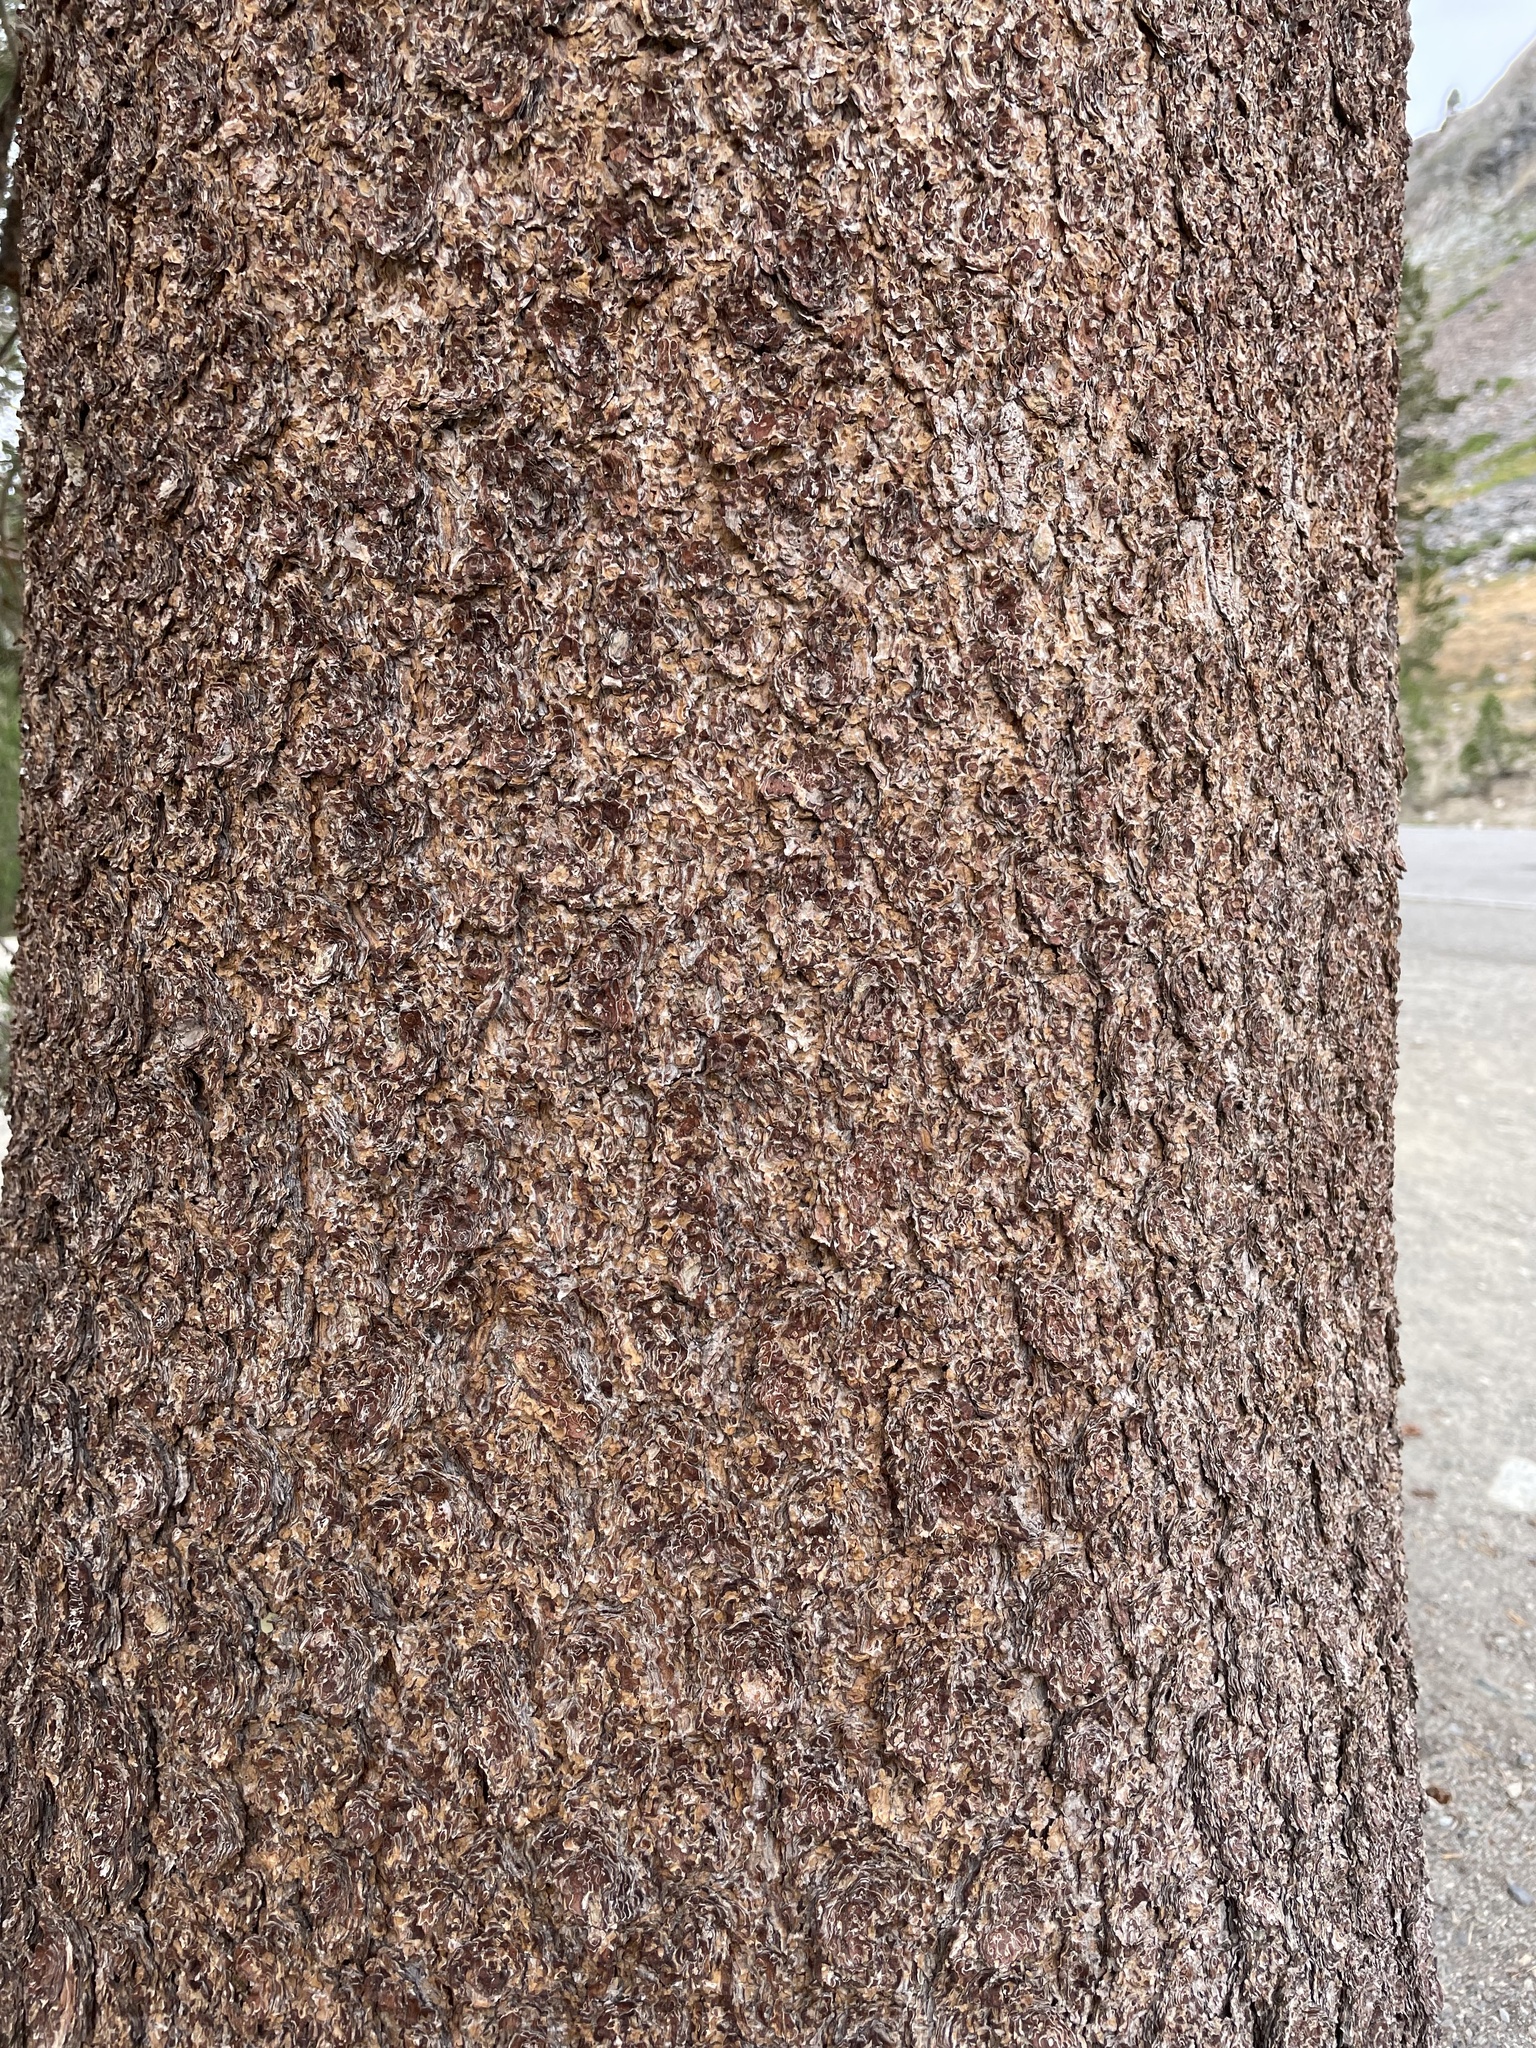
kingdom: Plantae
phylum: Tracheophyta
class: Pinopsida
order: Pinales
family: Pinaceae
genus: Pinus
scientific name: Pinus contorta
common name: Lodgepole pine
